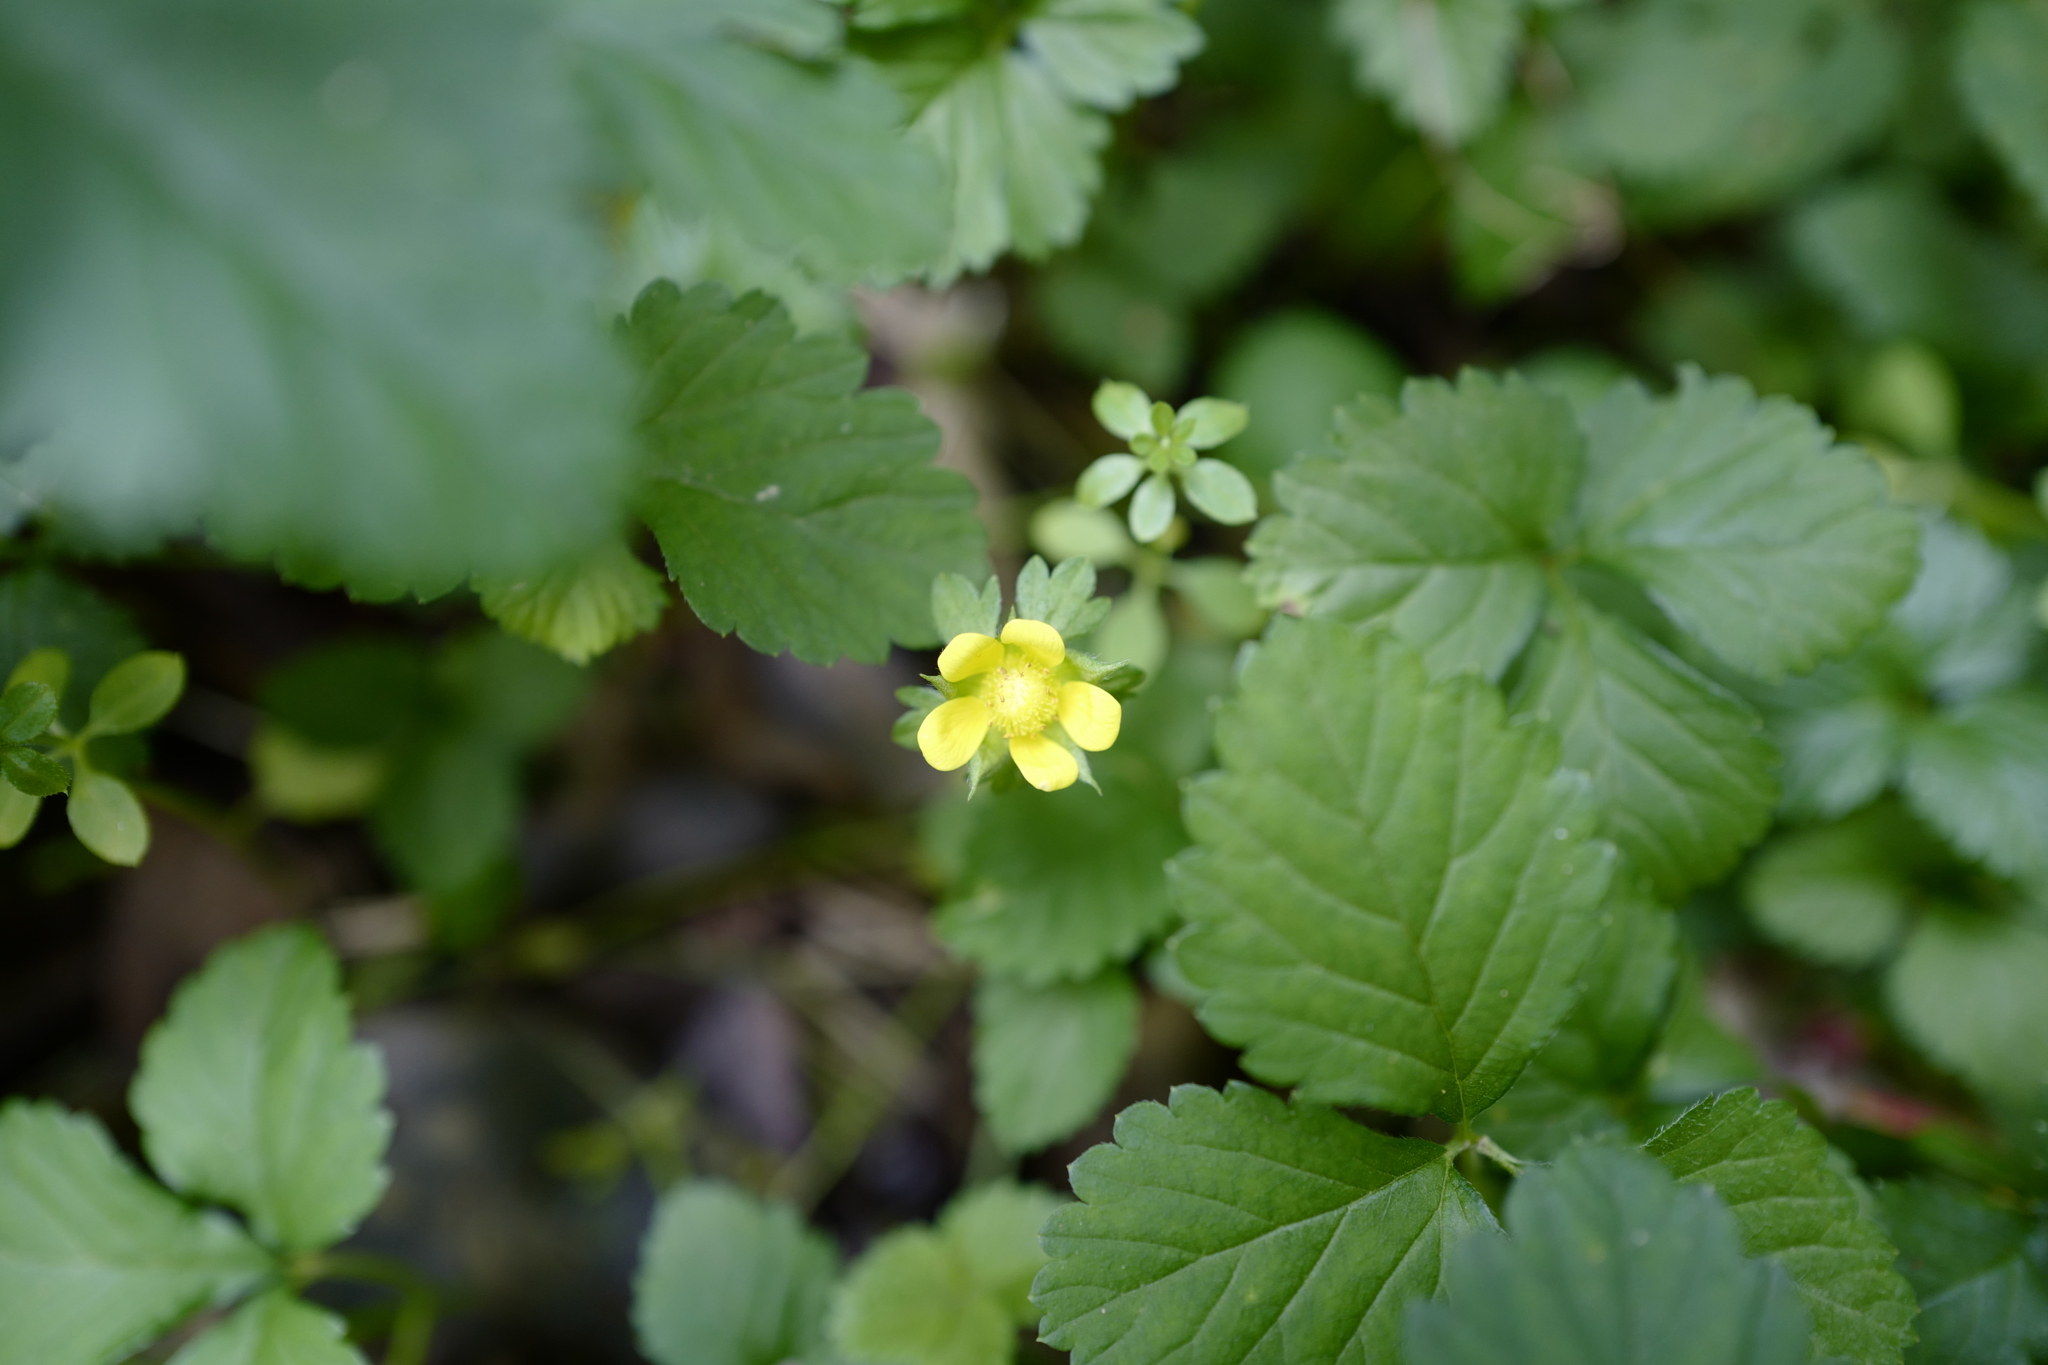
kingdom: Plantae
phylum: Tracheophyta
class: Magnoliopsida
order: Rosales
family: Rosaceae
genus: Potentilla
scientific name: Potentilla indica
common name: Yellow-flowered strawberry
